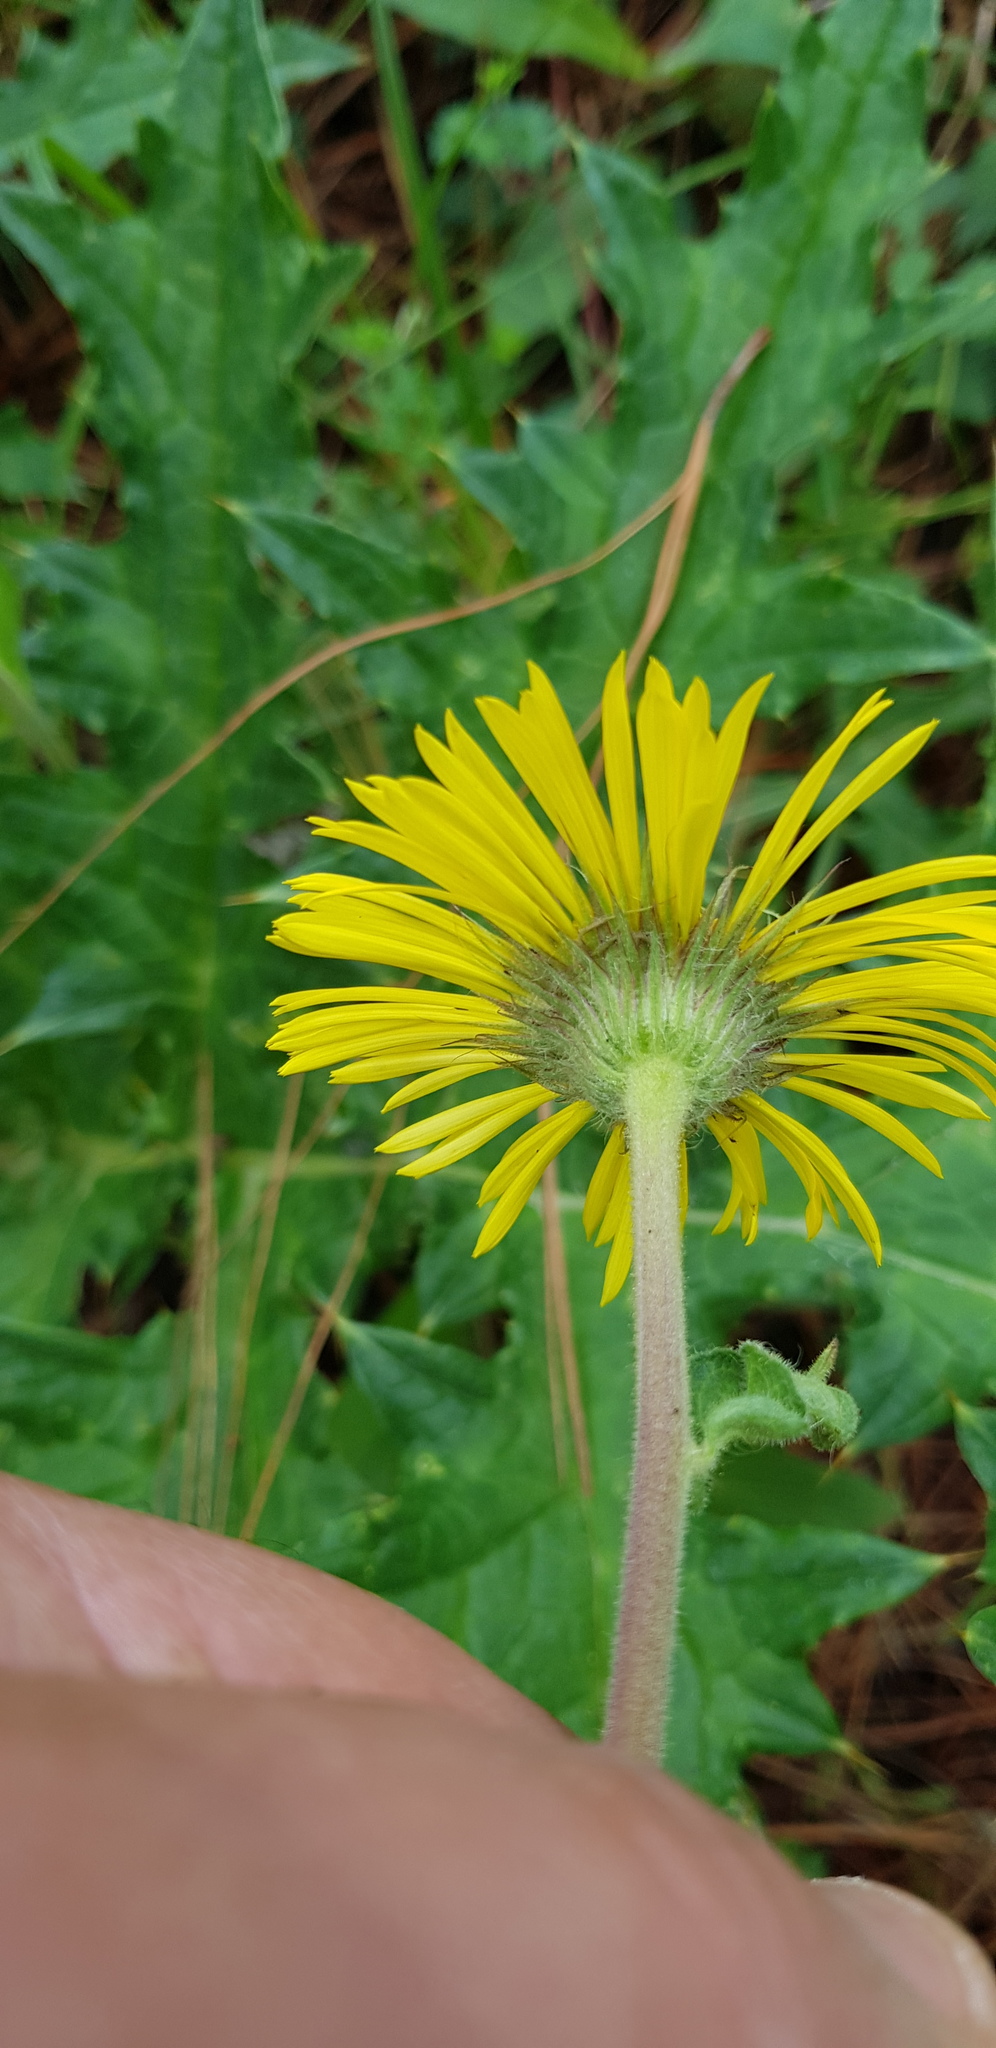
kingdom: Plantae
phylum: Tracheophyta
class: Magnoliopsida
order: Asterales
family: Asteraceae
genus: Osbertia
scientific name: Osbertia stolonifera
